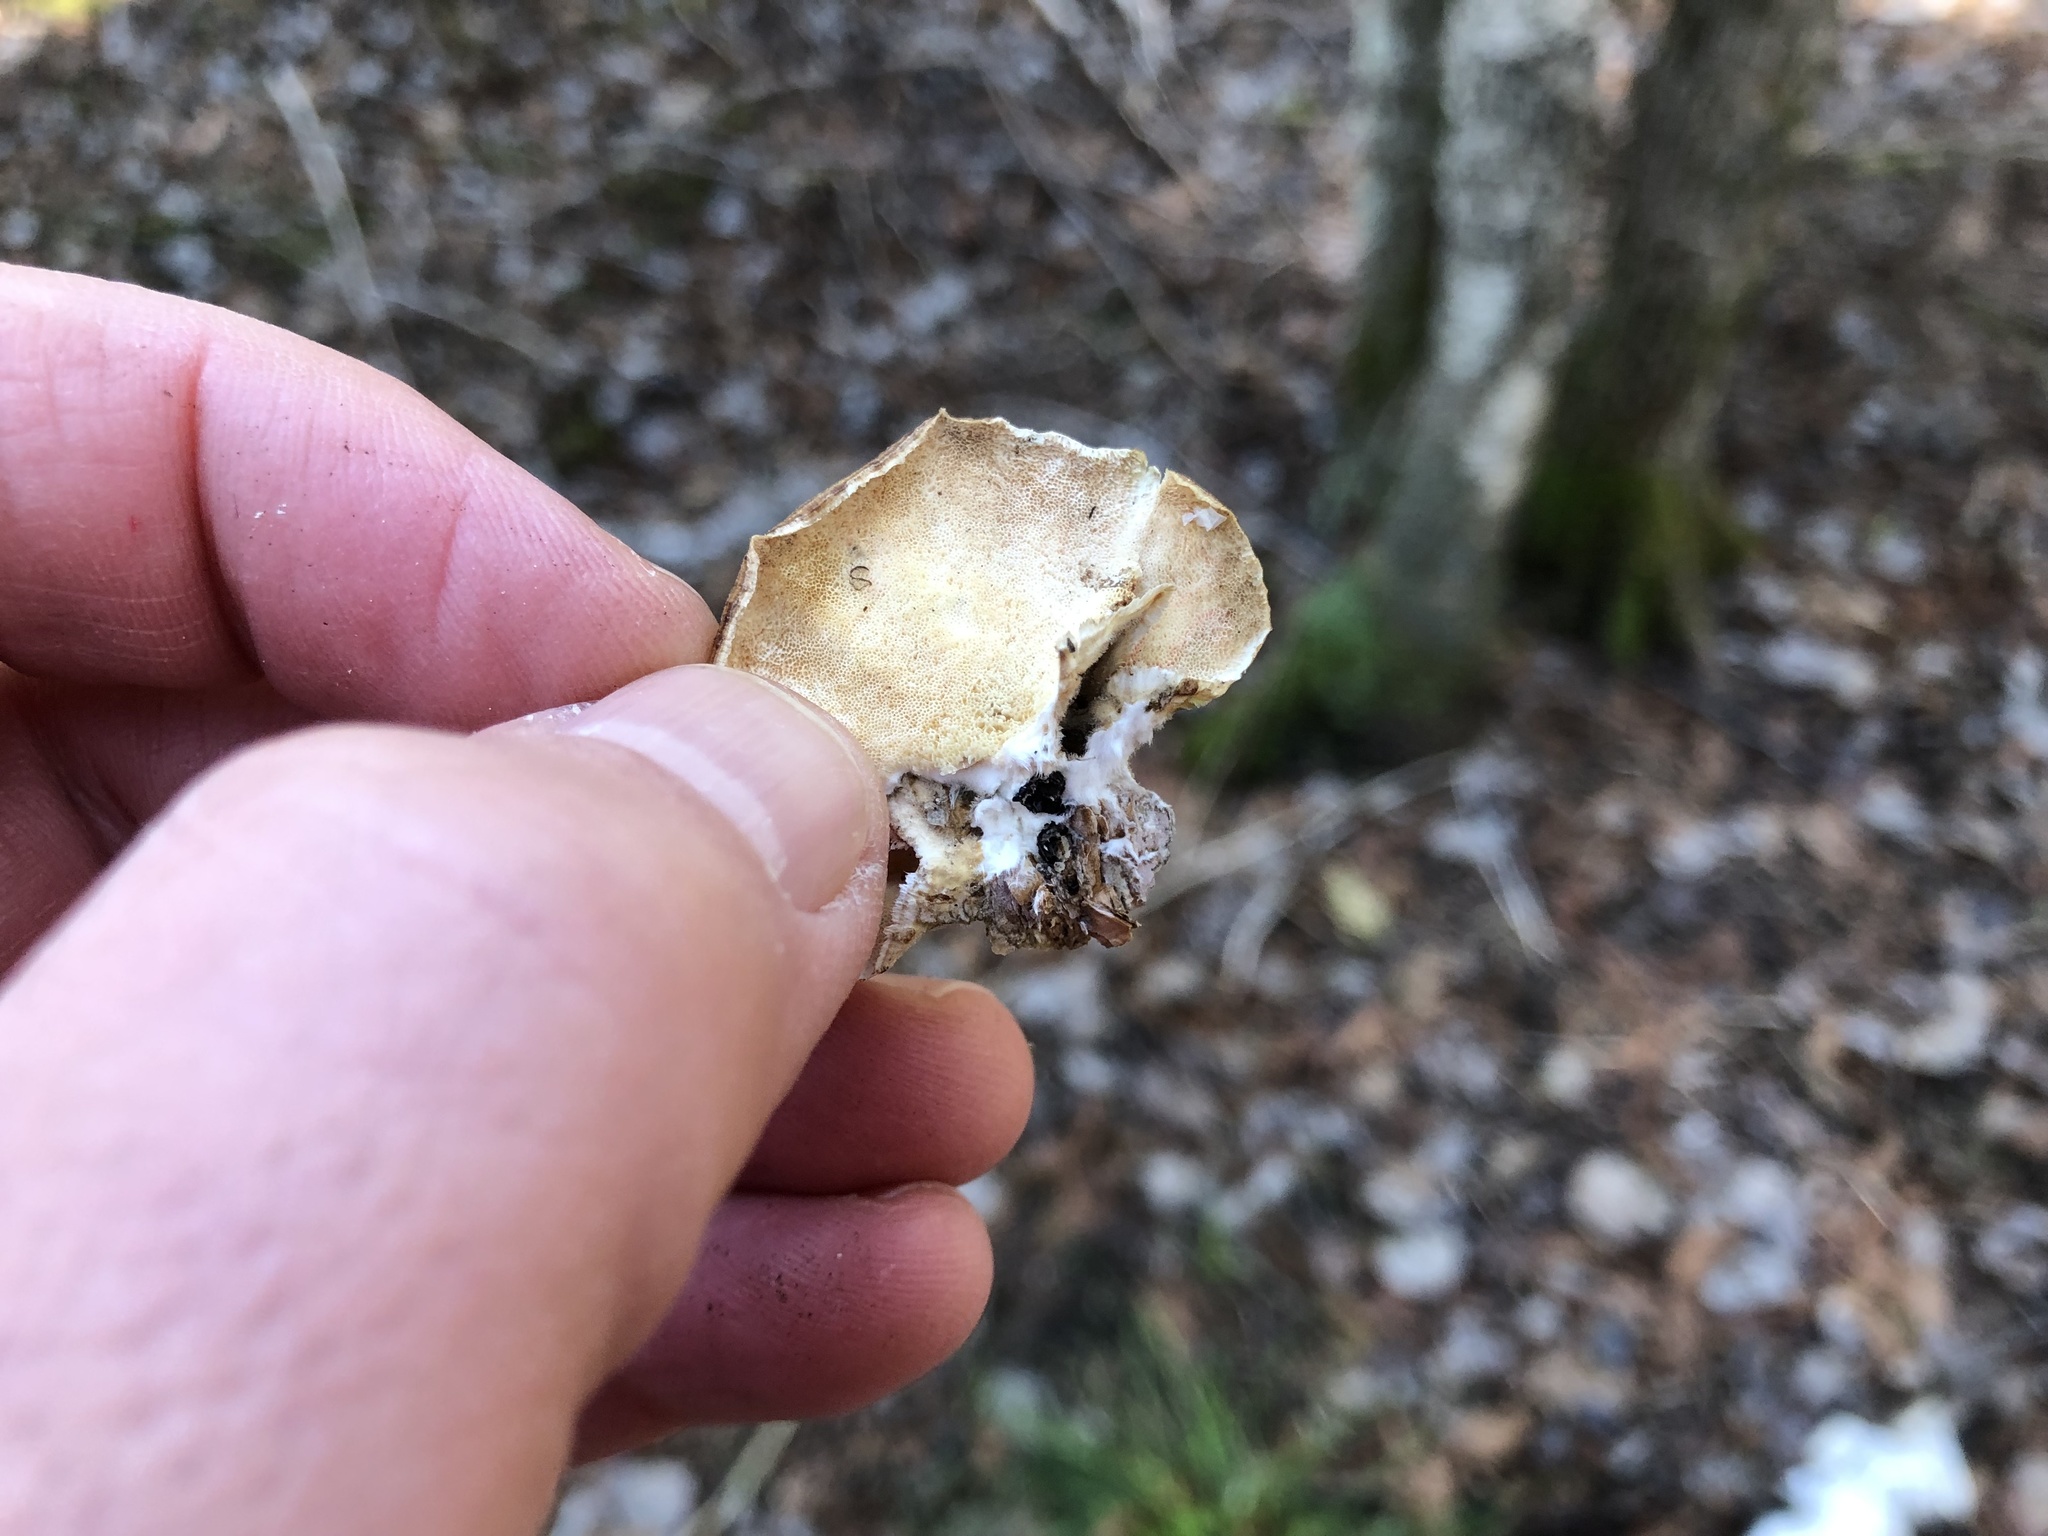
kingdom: Fungi
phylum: Basidiomycota
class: Agaricomycetes
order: Polyporales
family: Polyporaceae
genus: Trametes
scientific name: Trametes versicolor
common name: Turkeytail
